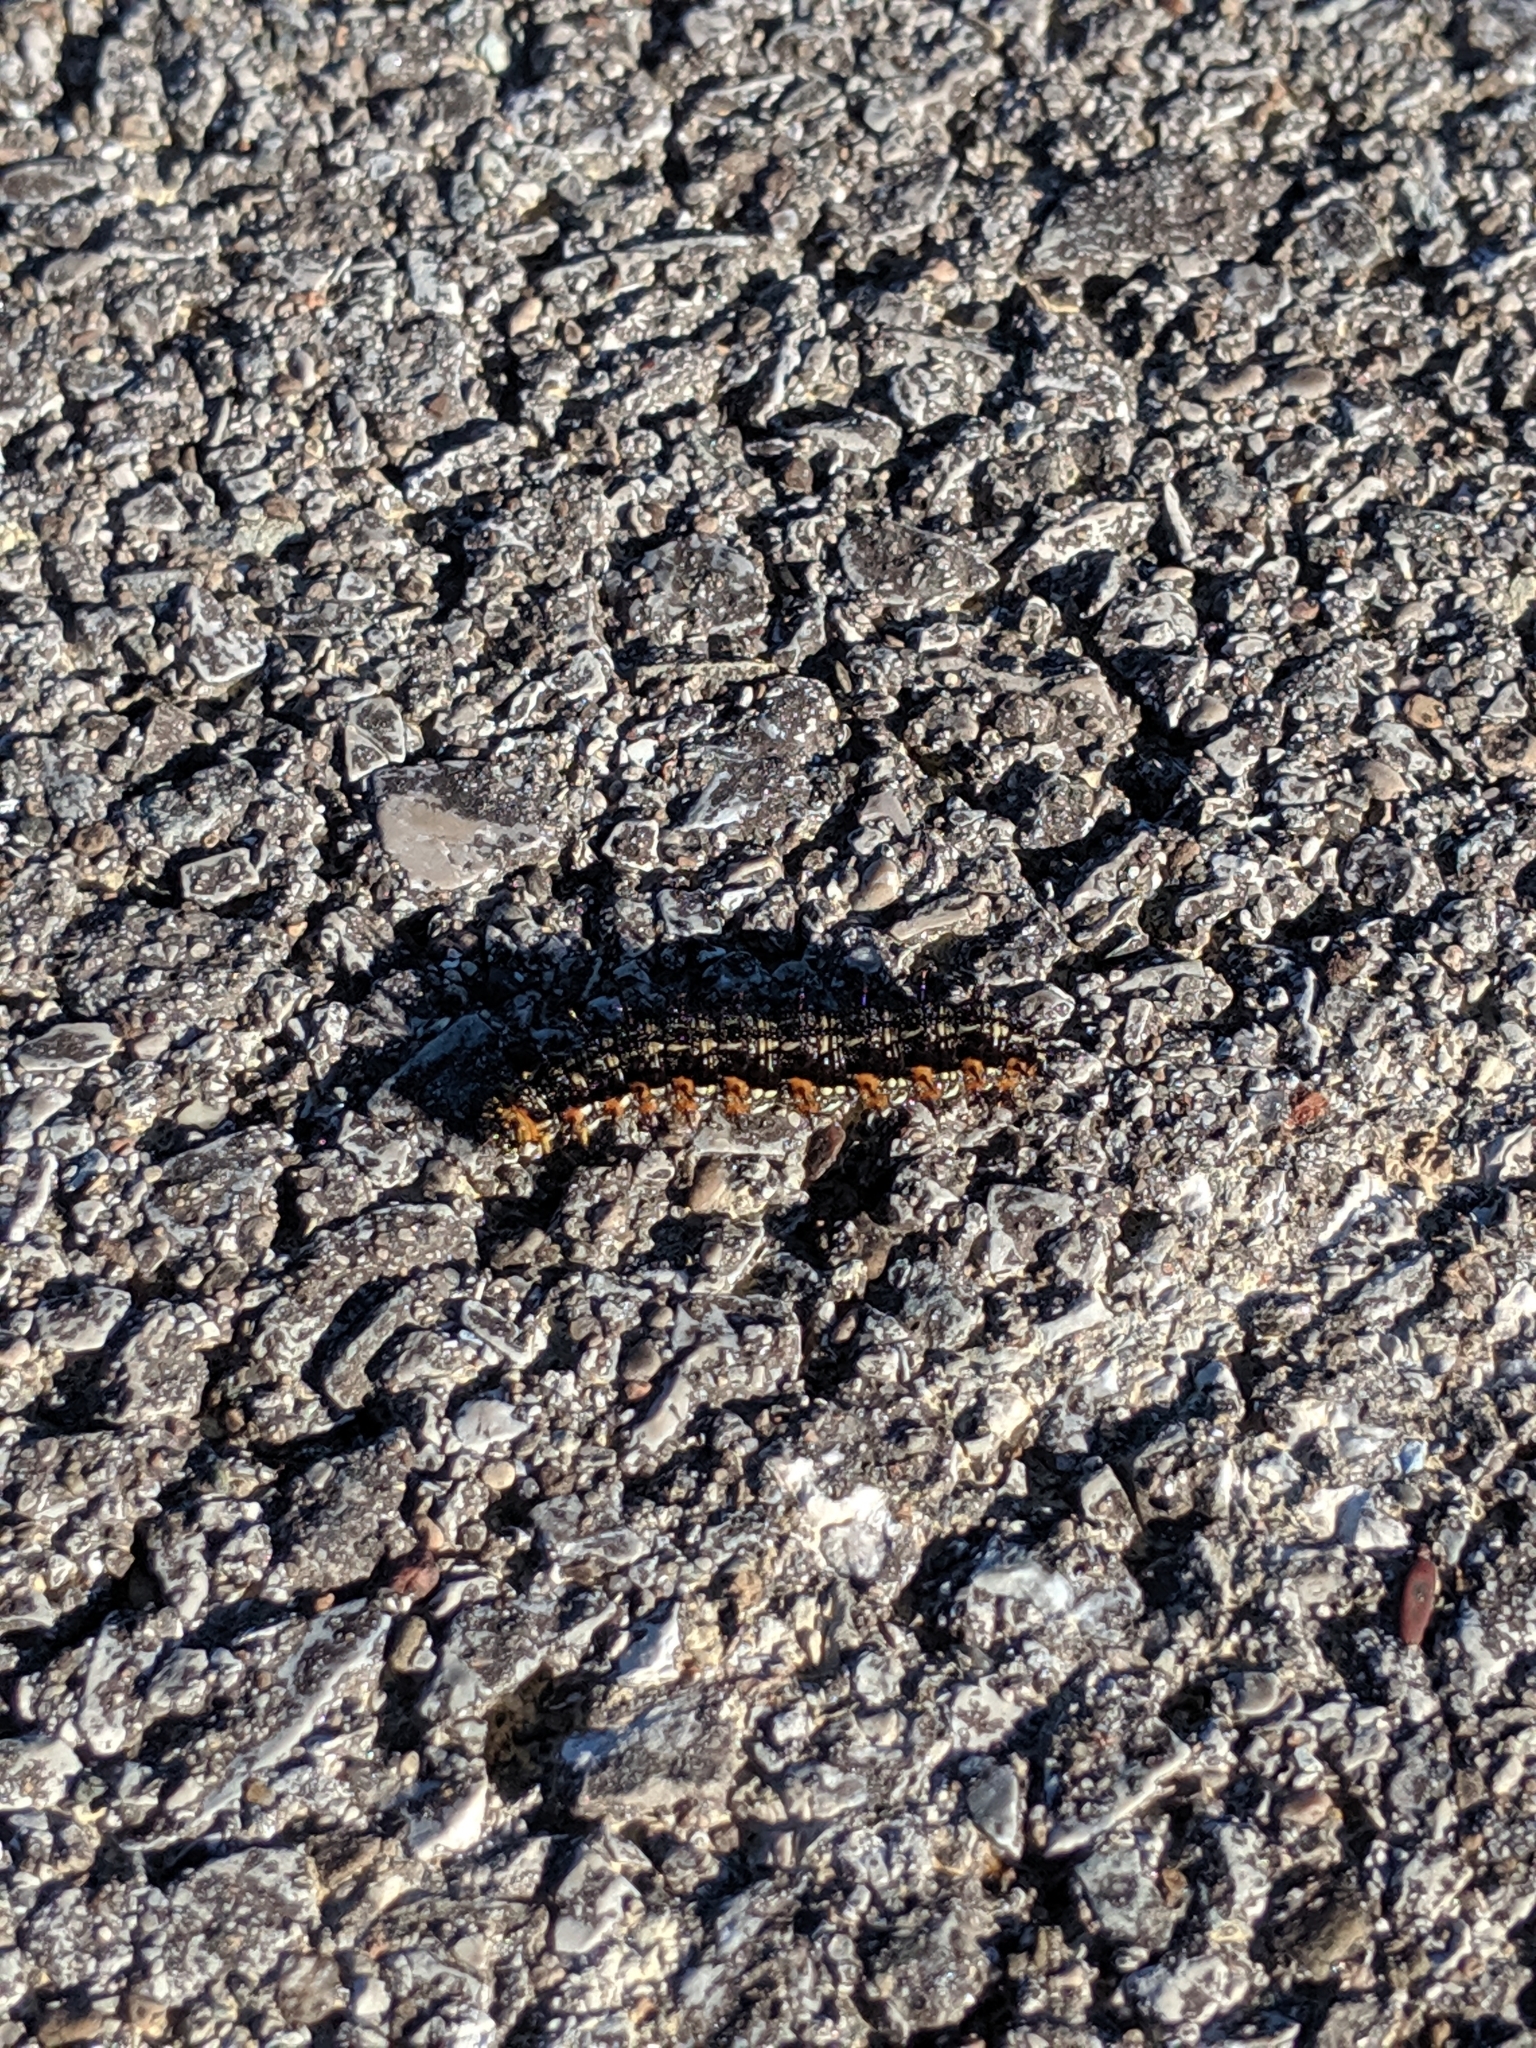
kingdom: Animalia
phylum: Arthropoda
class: Insecta
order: Lepidoptera
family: Nymphalidae
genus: Junonia
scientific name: Junonia coenia
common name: Common buckeye
